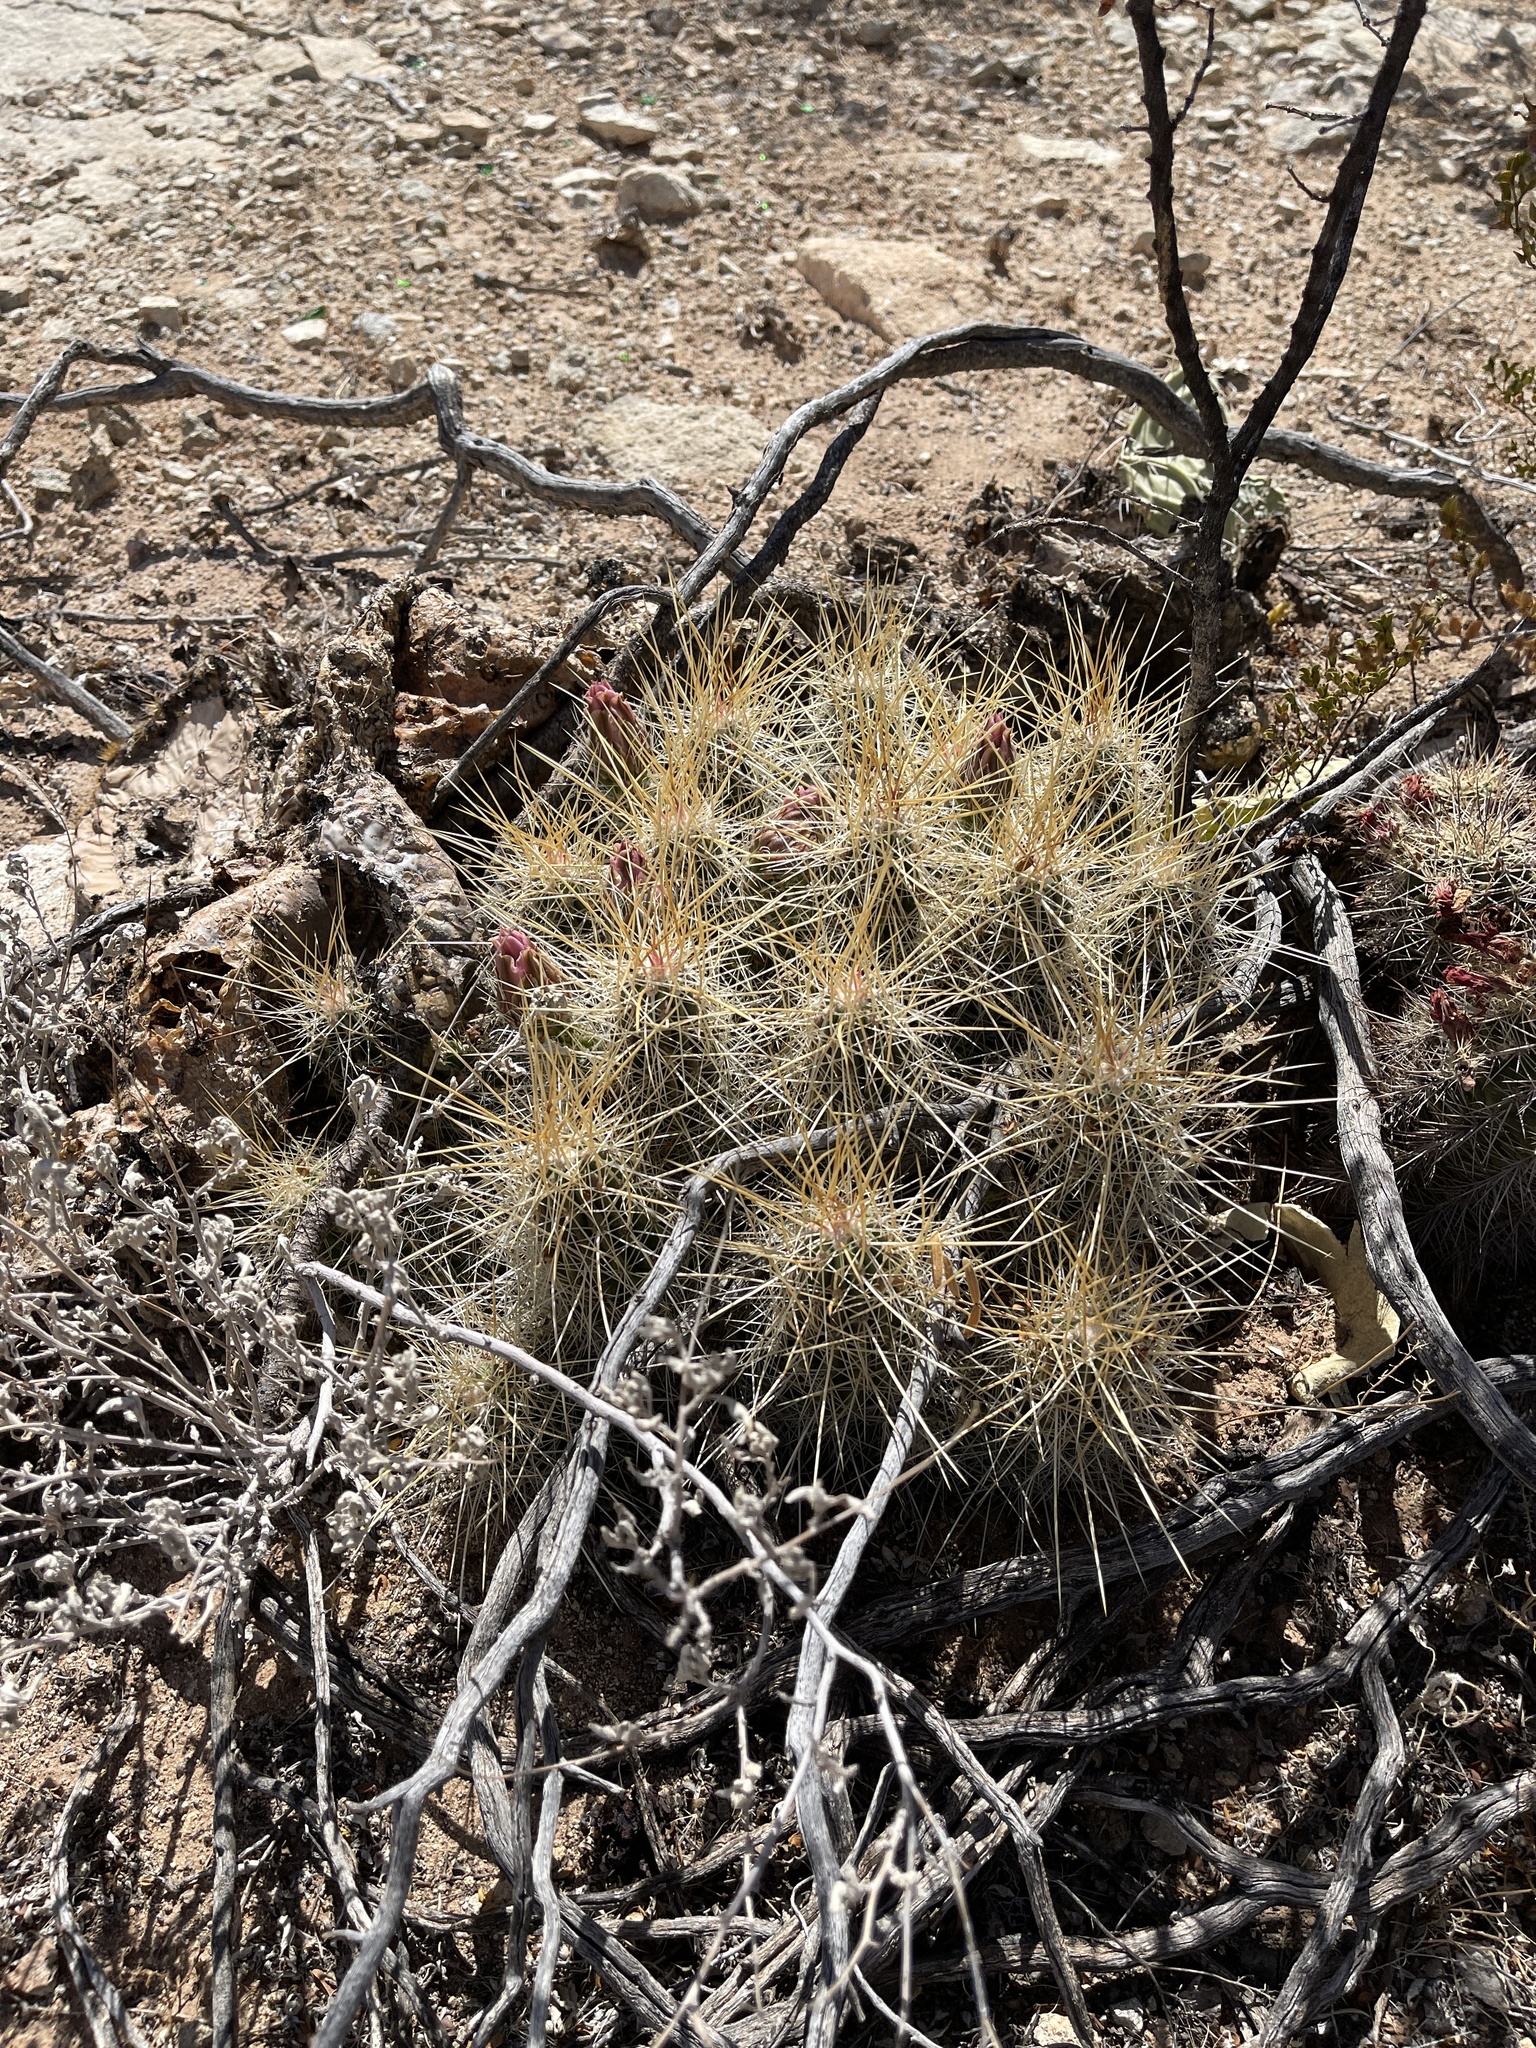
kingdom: Plantae
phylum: Tracheophyta
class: Magnoliopsida
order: Caryophyllales
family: Cactaceae
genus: Echinocereus
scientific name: Echinocereus stramineus
